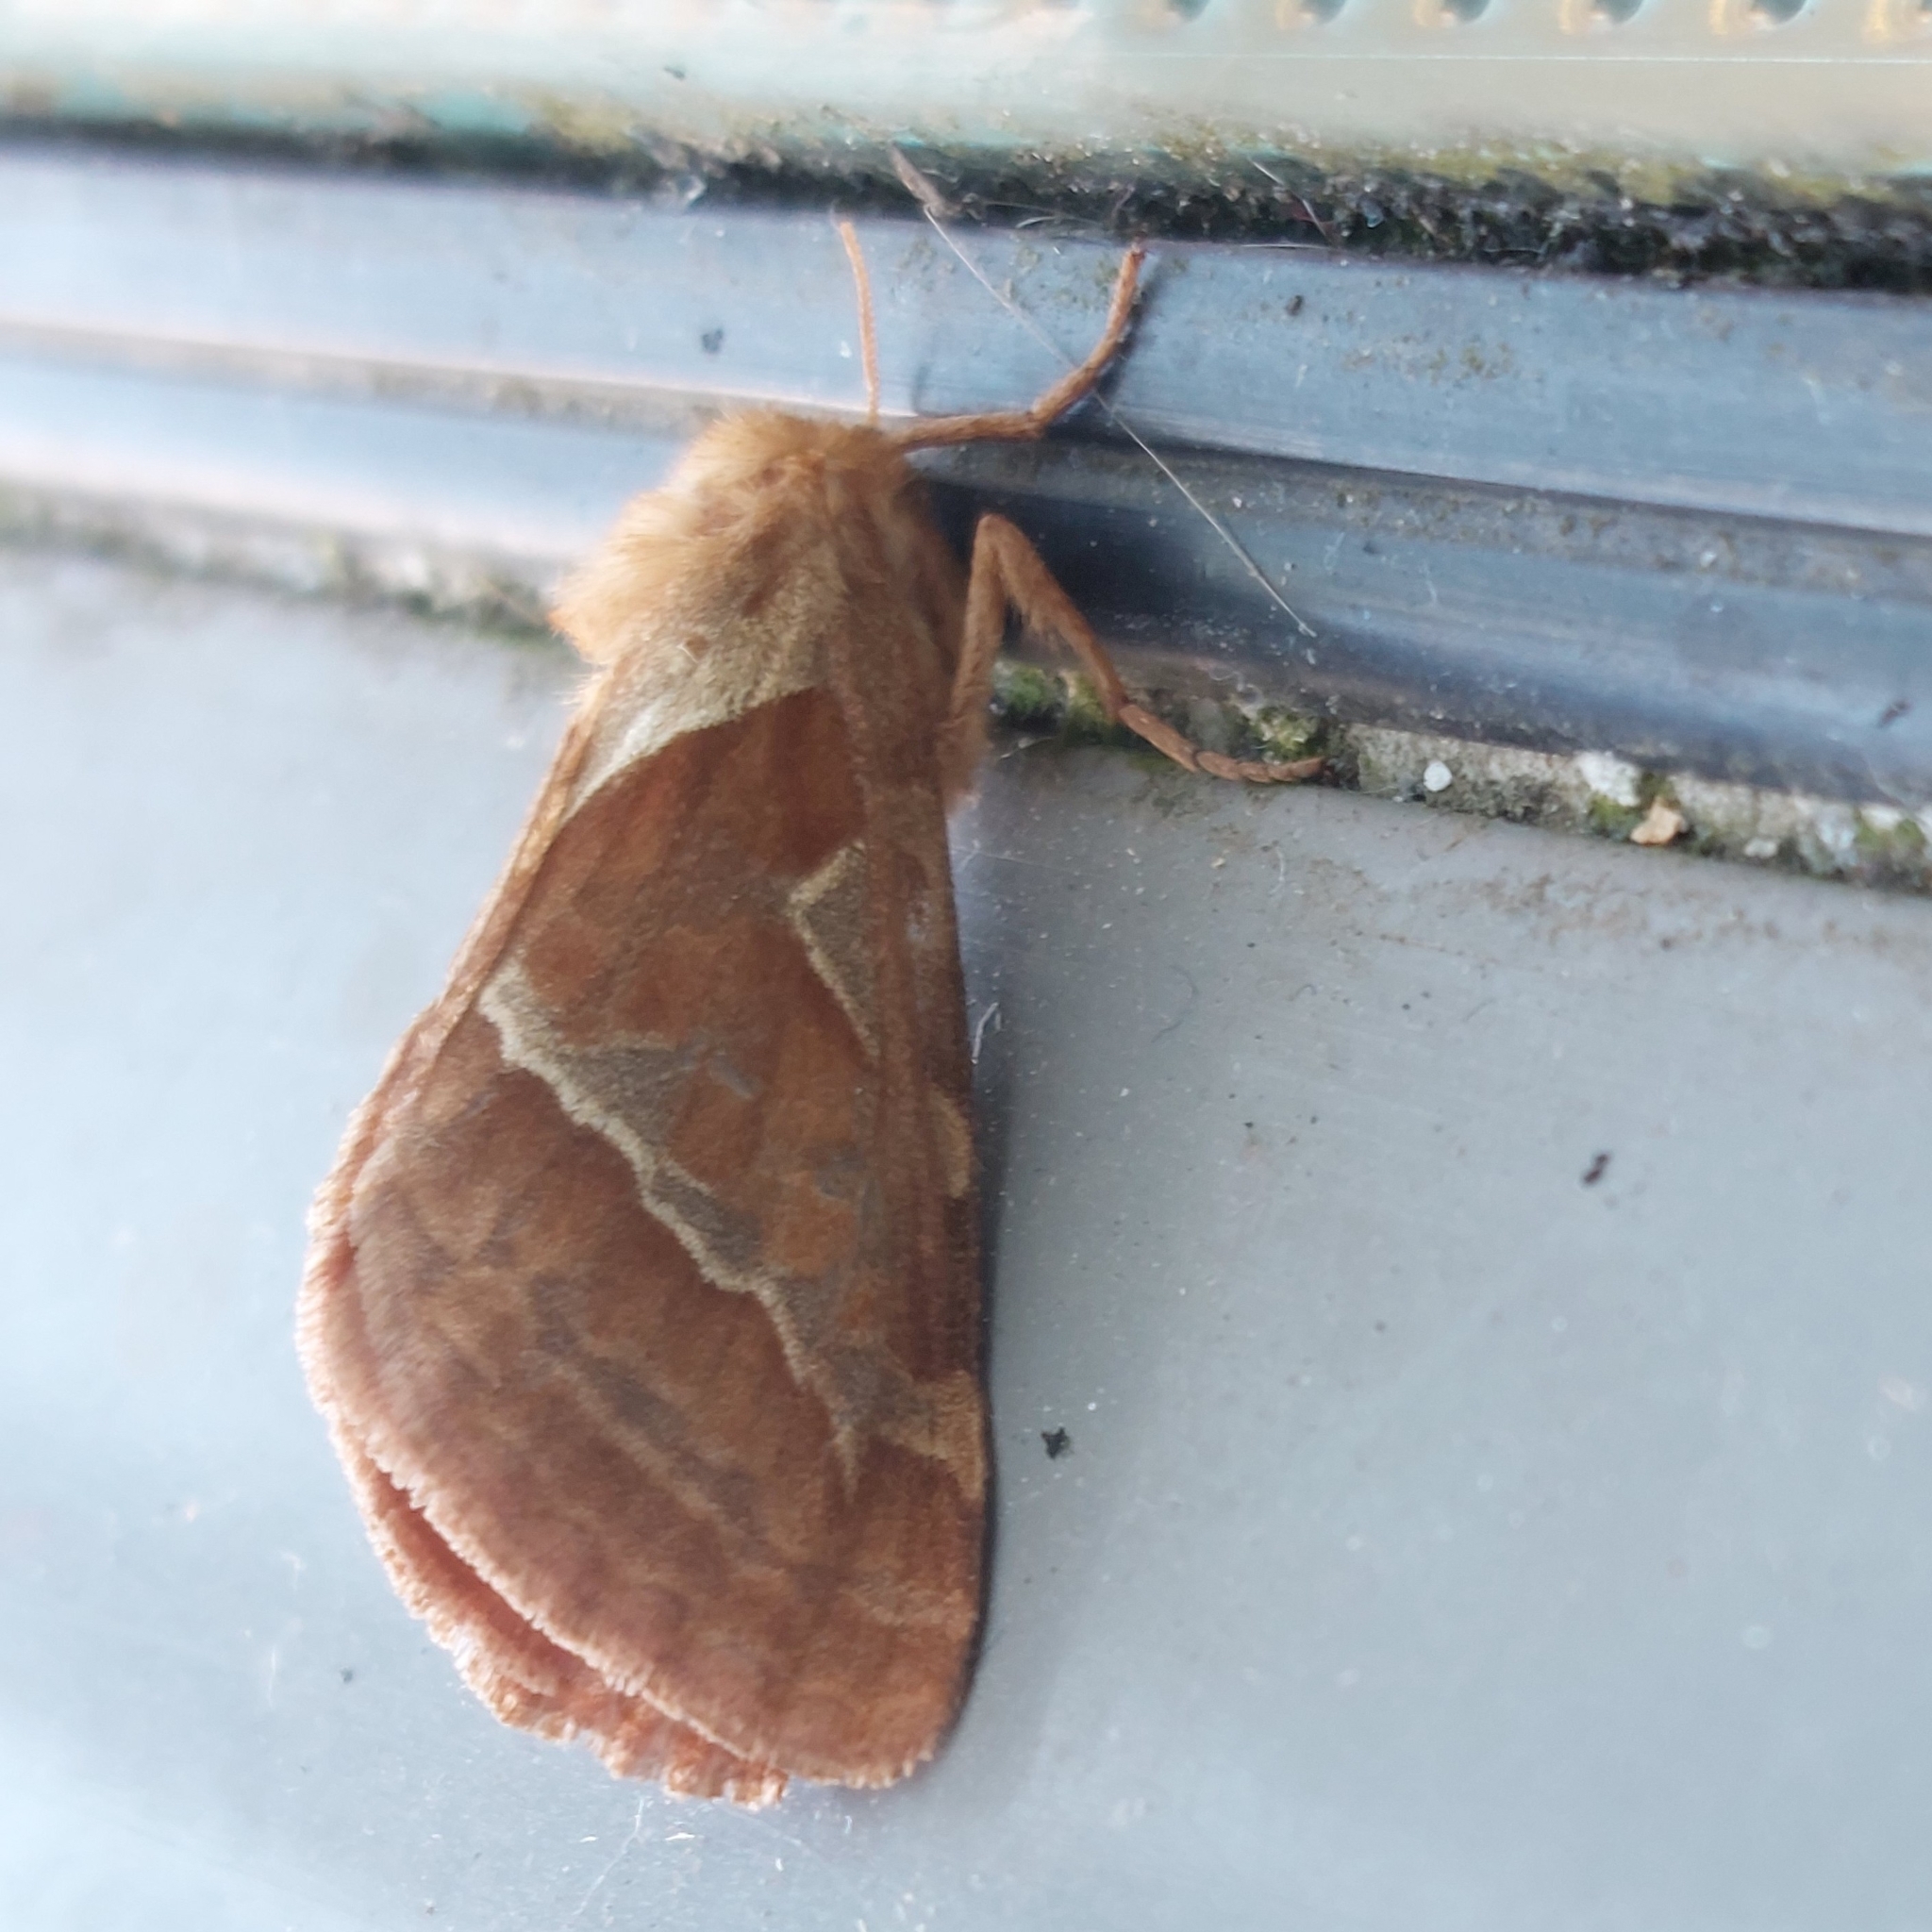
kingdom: Animalia
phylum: Arthropoda
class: Insecta
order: Lepidoptera
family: Hepialidae
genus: Triodia
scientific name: Triodia sylvina
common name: Orange swift
